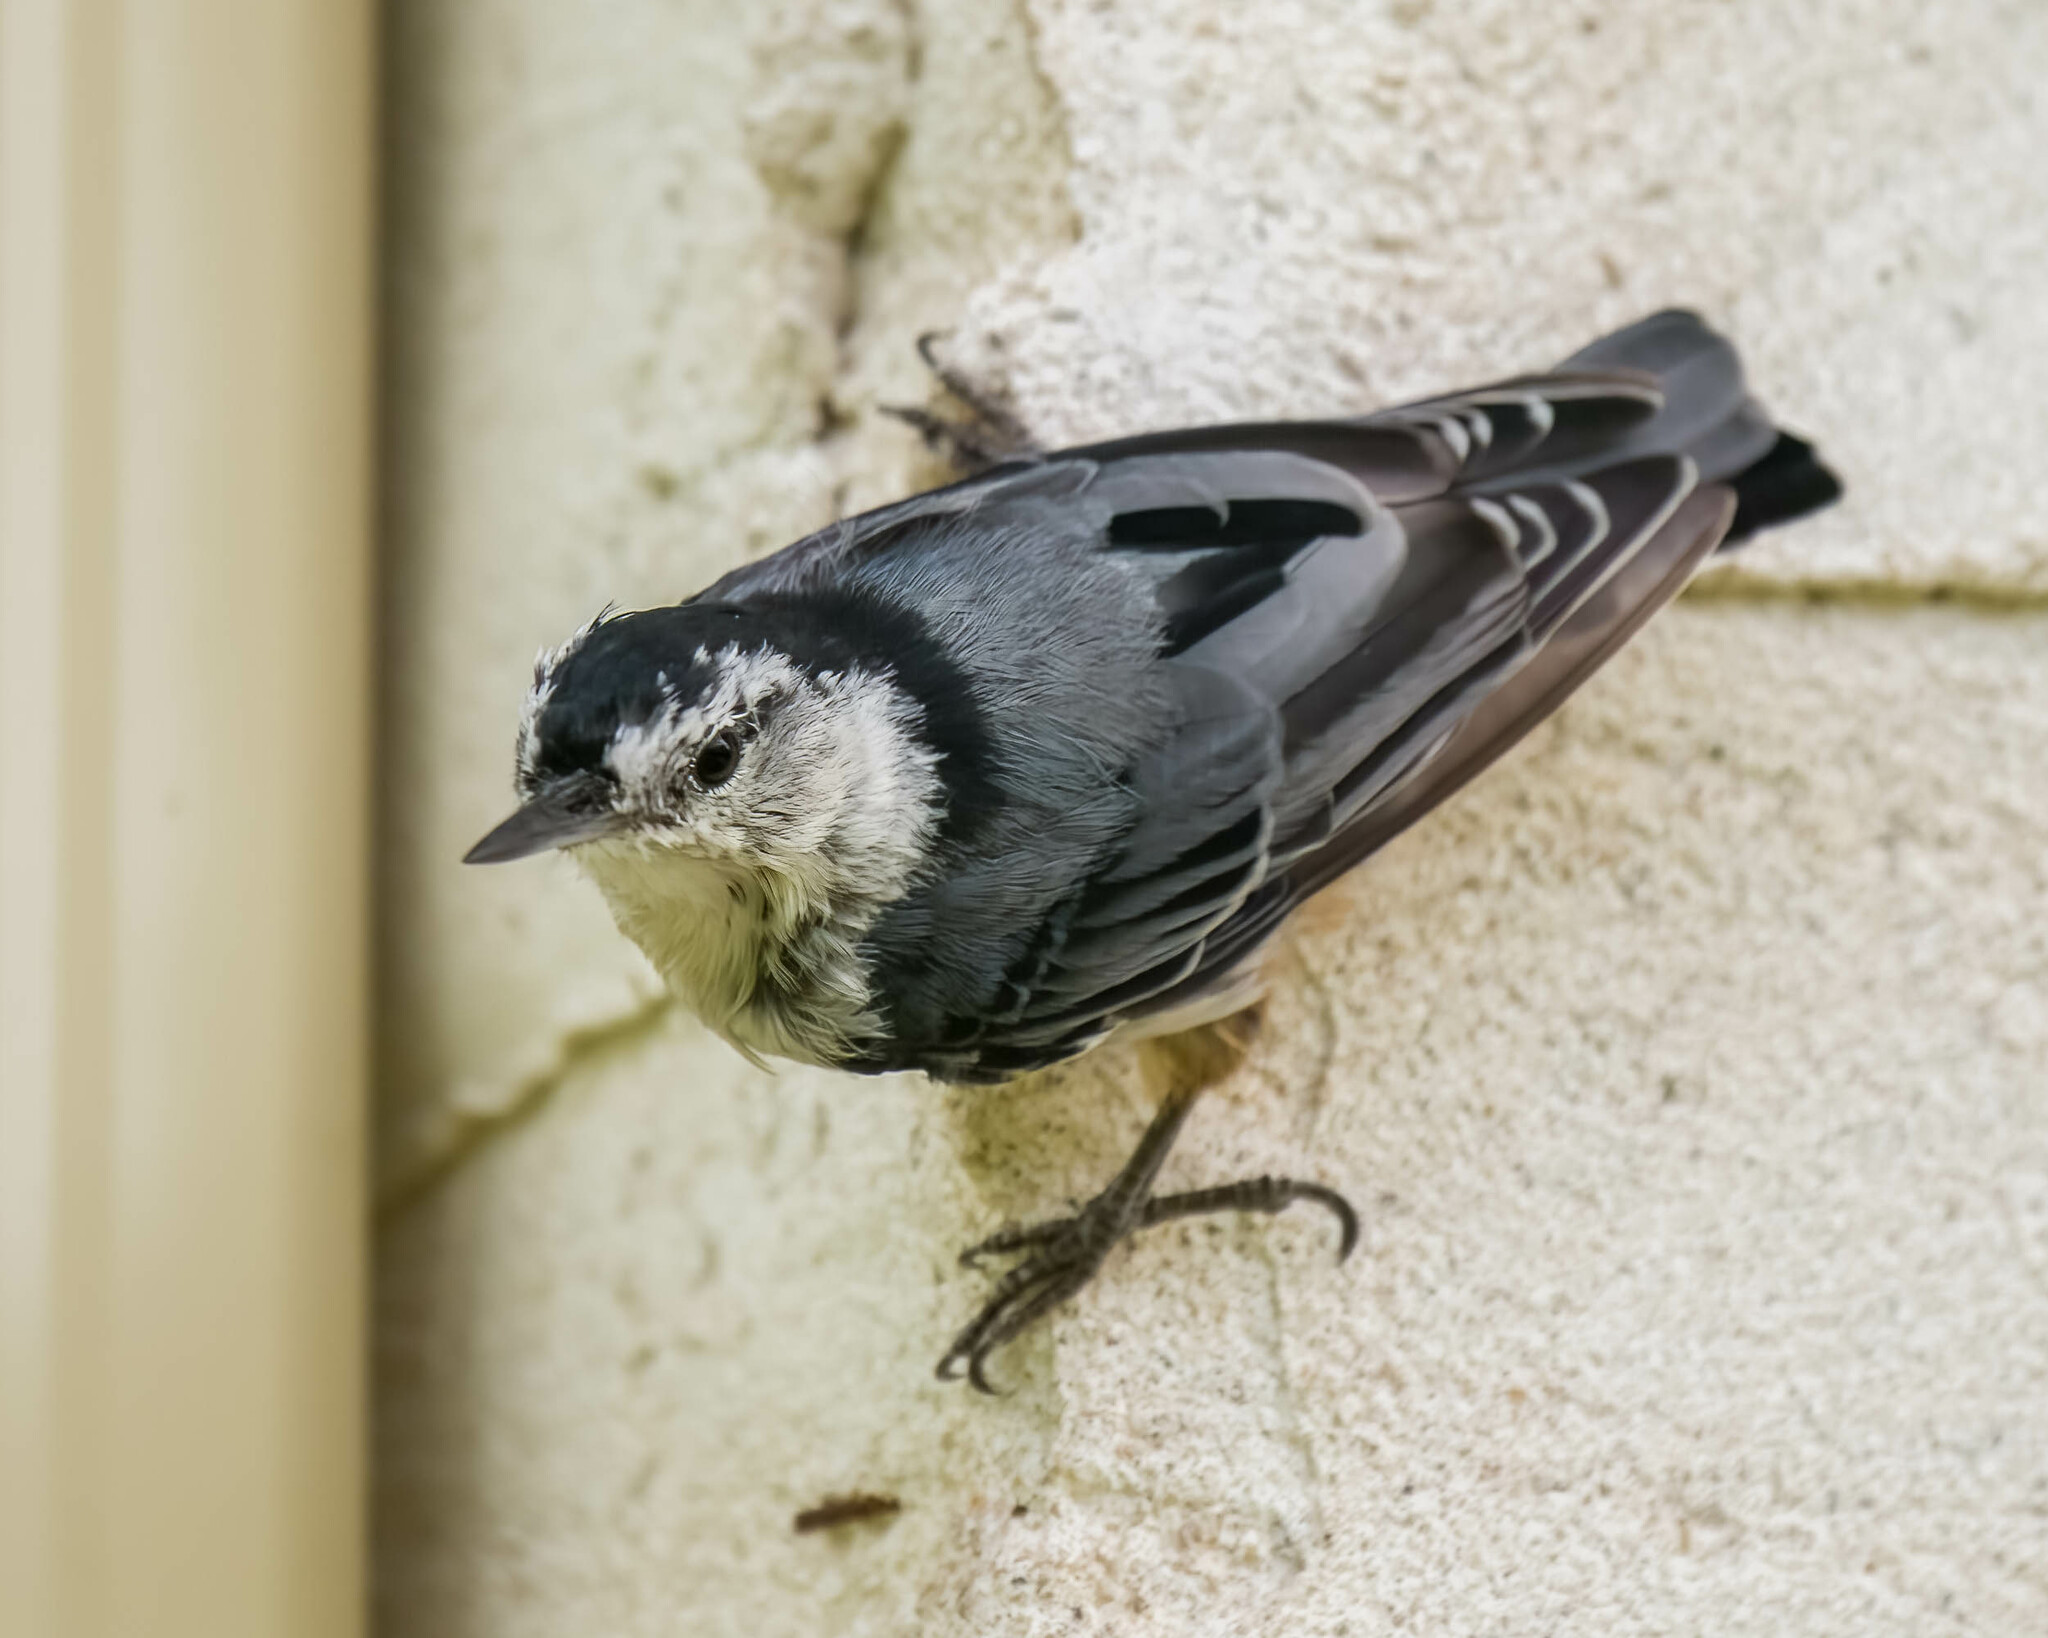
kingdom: Animalia
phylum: Chordata
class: Aves
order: Passeriformes
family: Sittidae
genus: Sitta
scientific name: Sitta carolinensis
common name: White-breasted nuthatch
